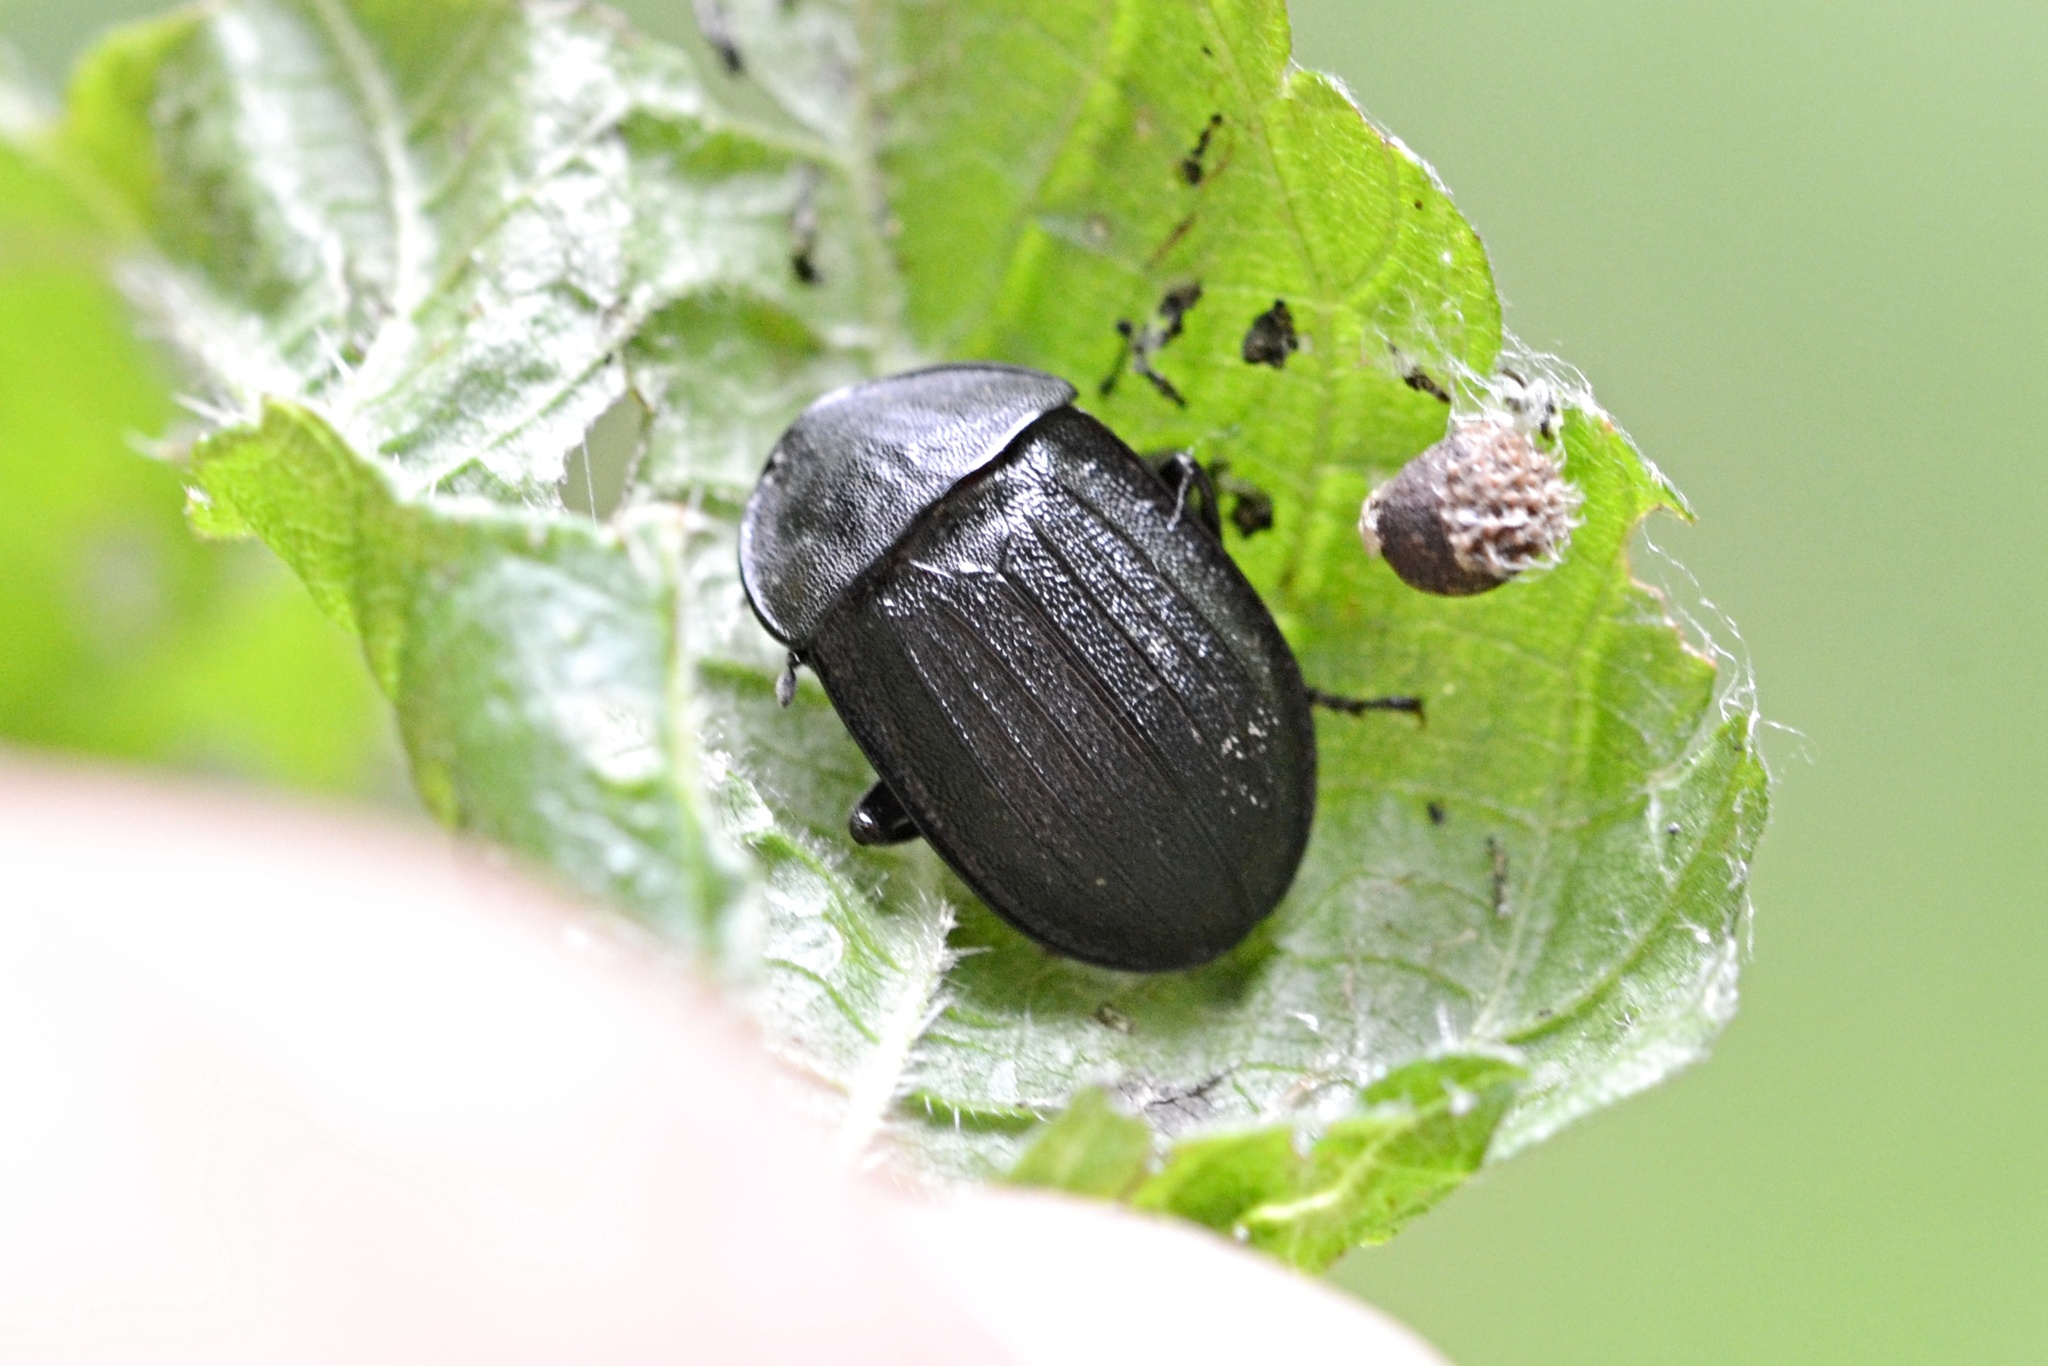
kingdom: Animalia
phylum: Arthropoda
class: Insecta
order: Coleoptera
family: Staphylinidae
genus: Silpha
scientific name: Silpha atrata
